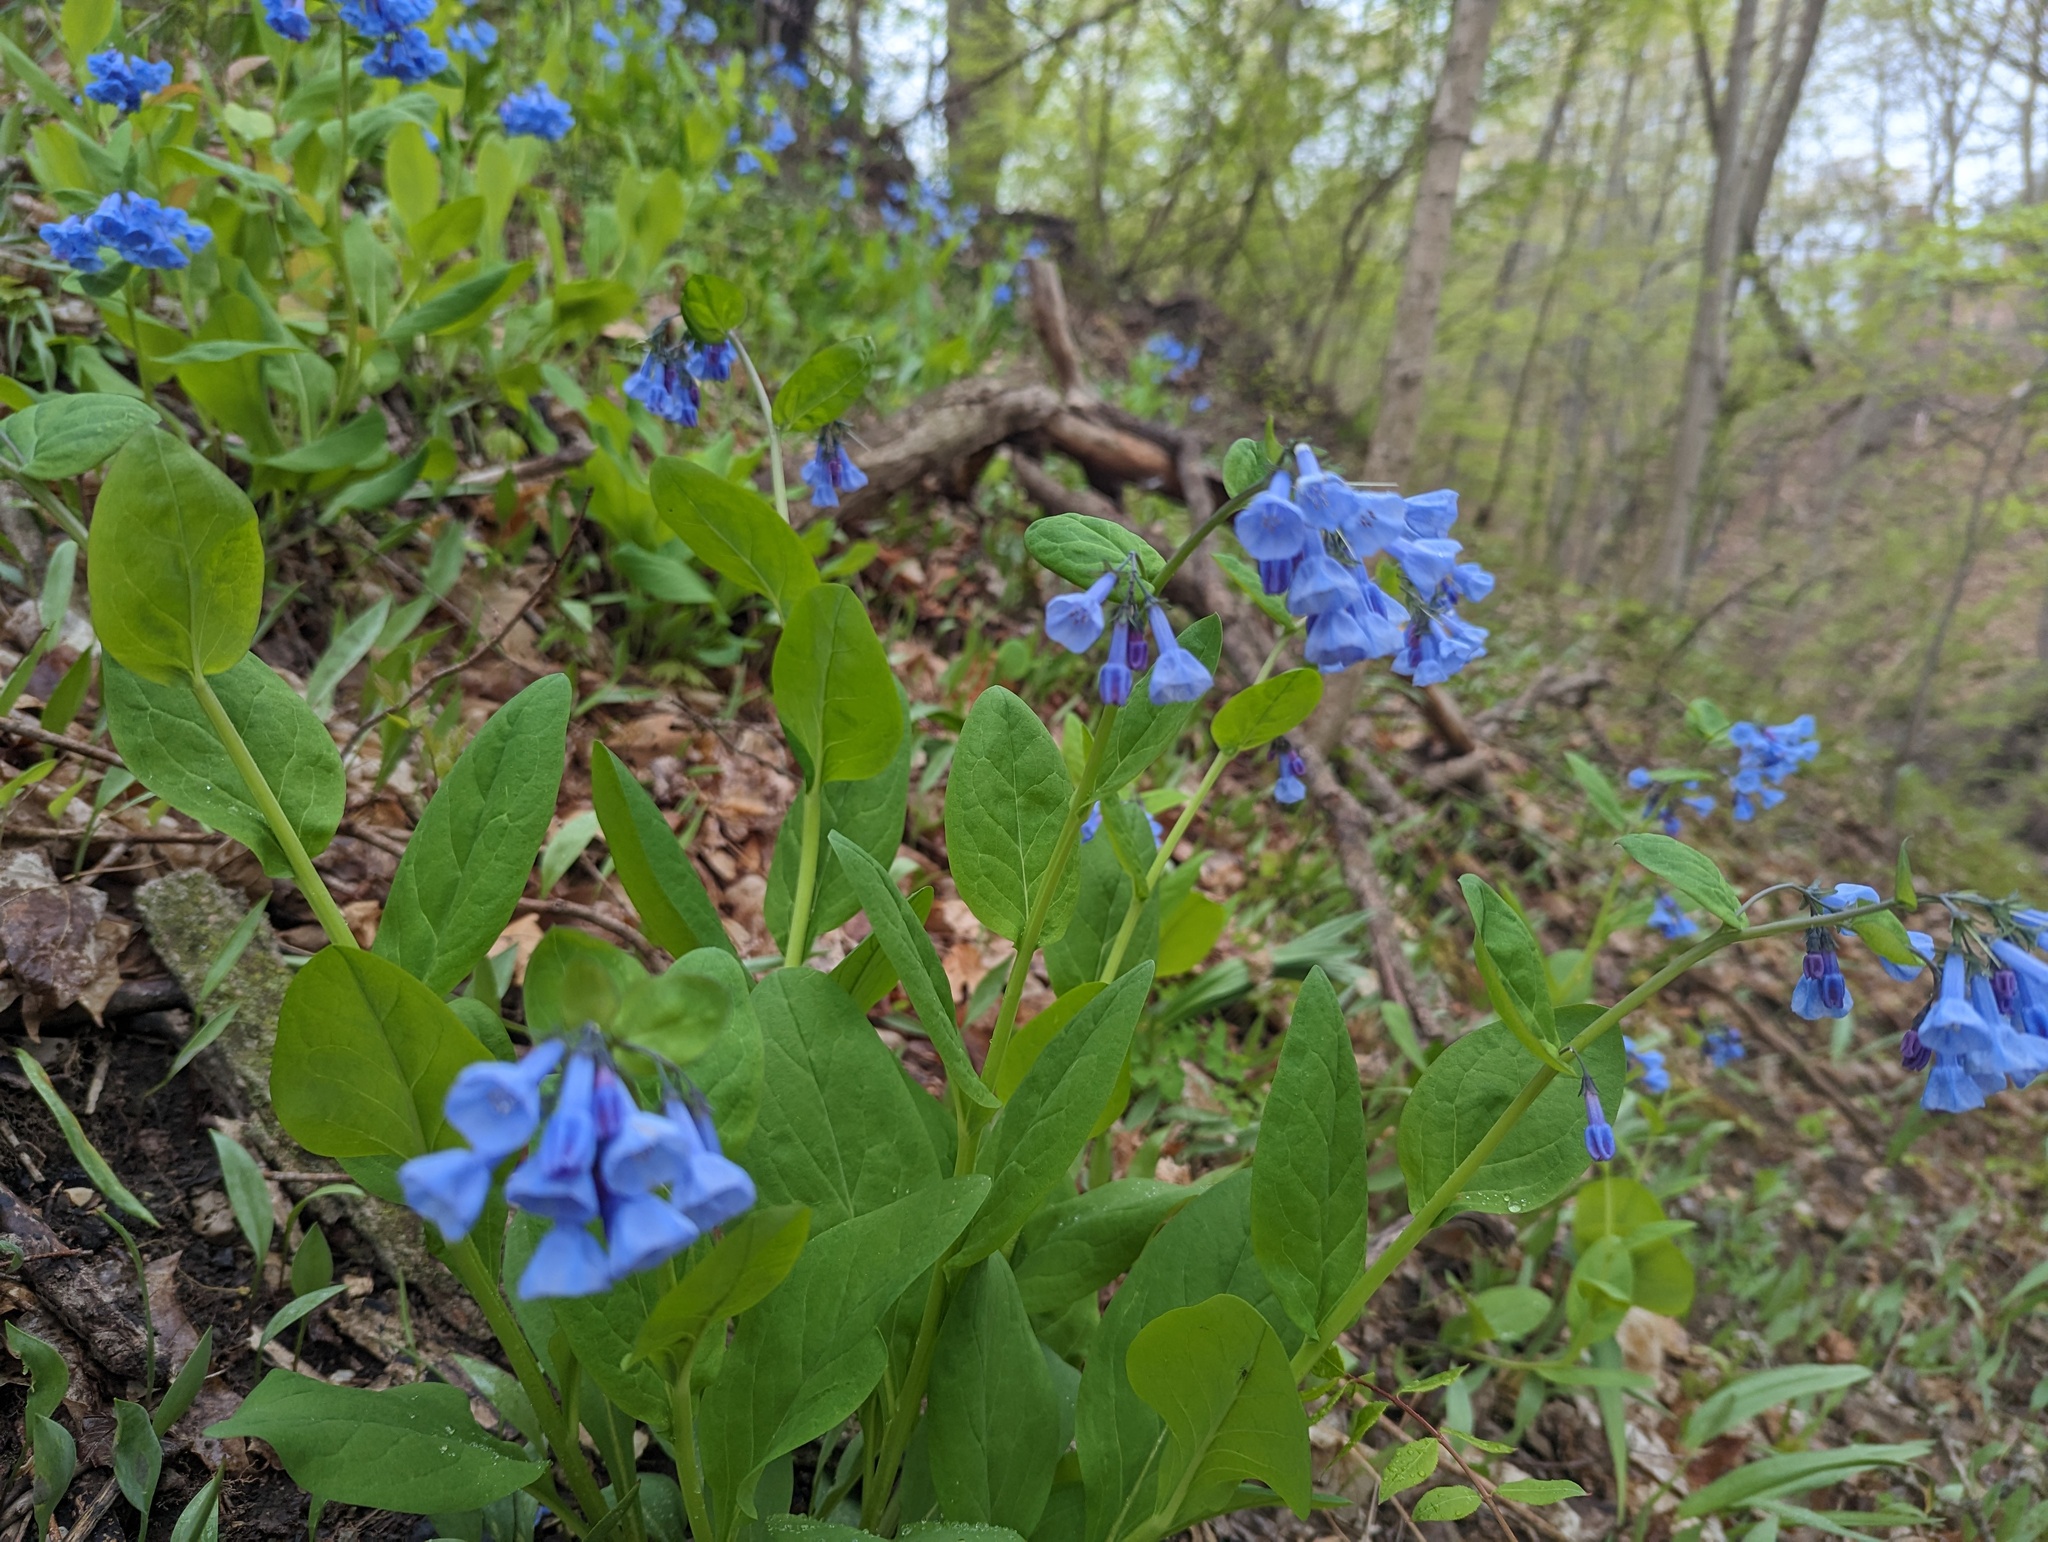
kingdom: Plantae
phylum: Tracheophyta
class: Magnoliopsida
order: Boraginales
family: Boraginaceae
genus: Mertensia
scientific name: Mertensia virginica
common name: Virginia bluebells
